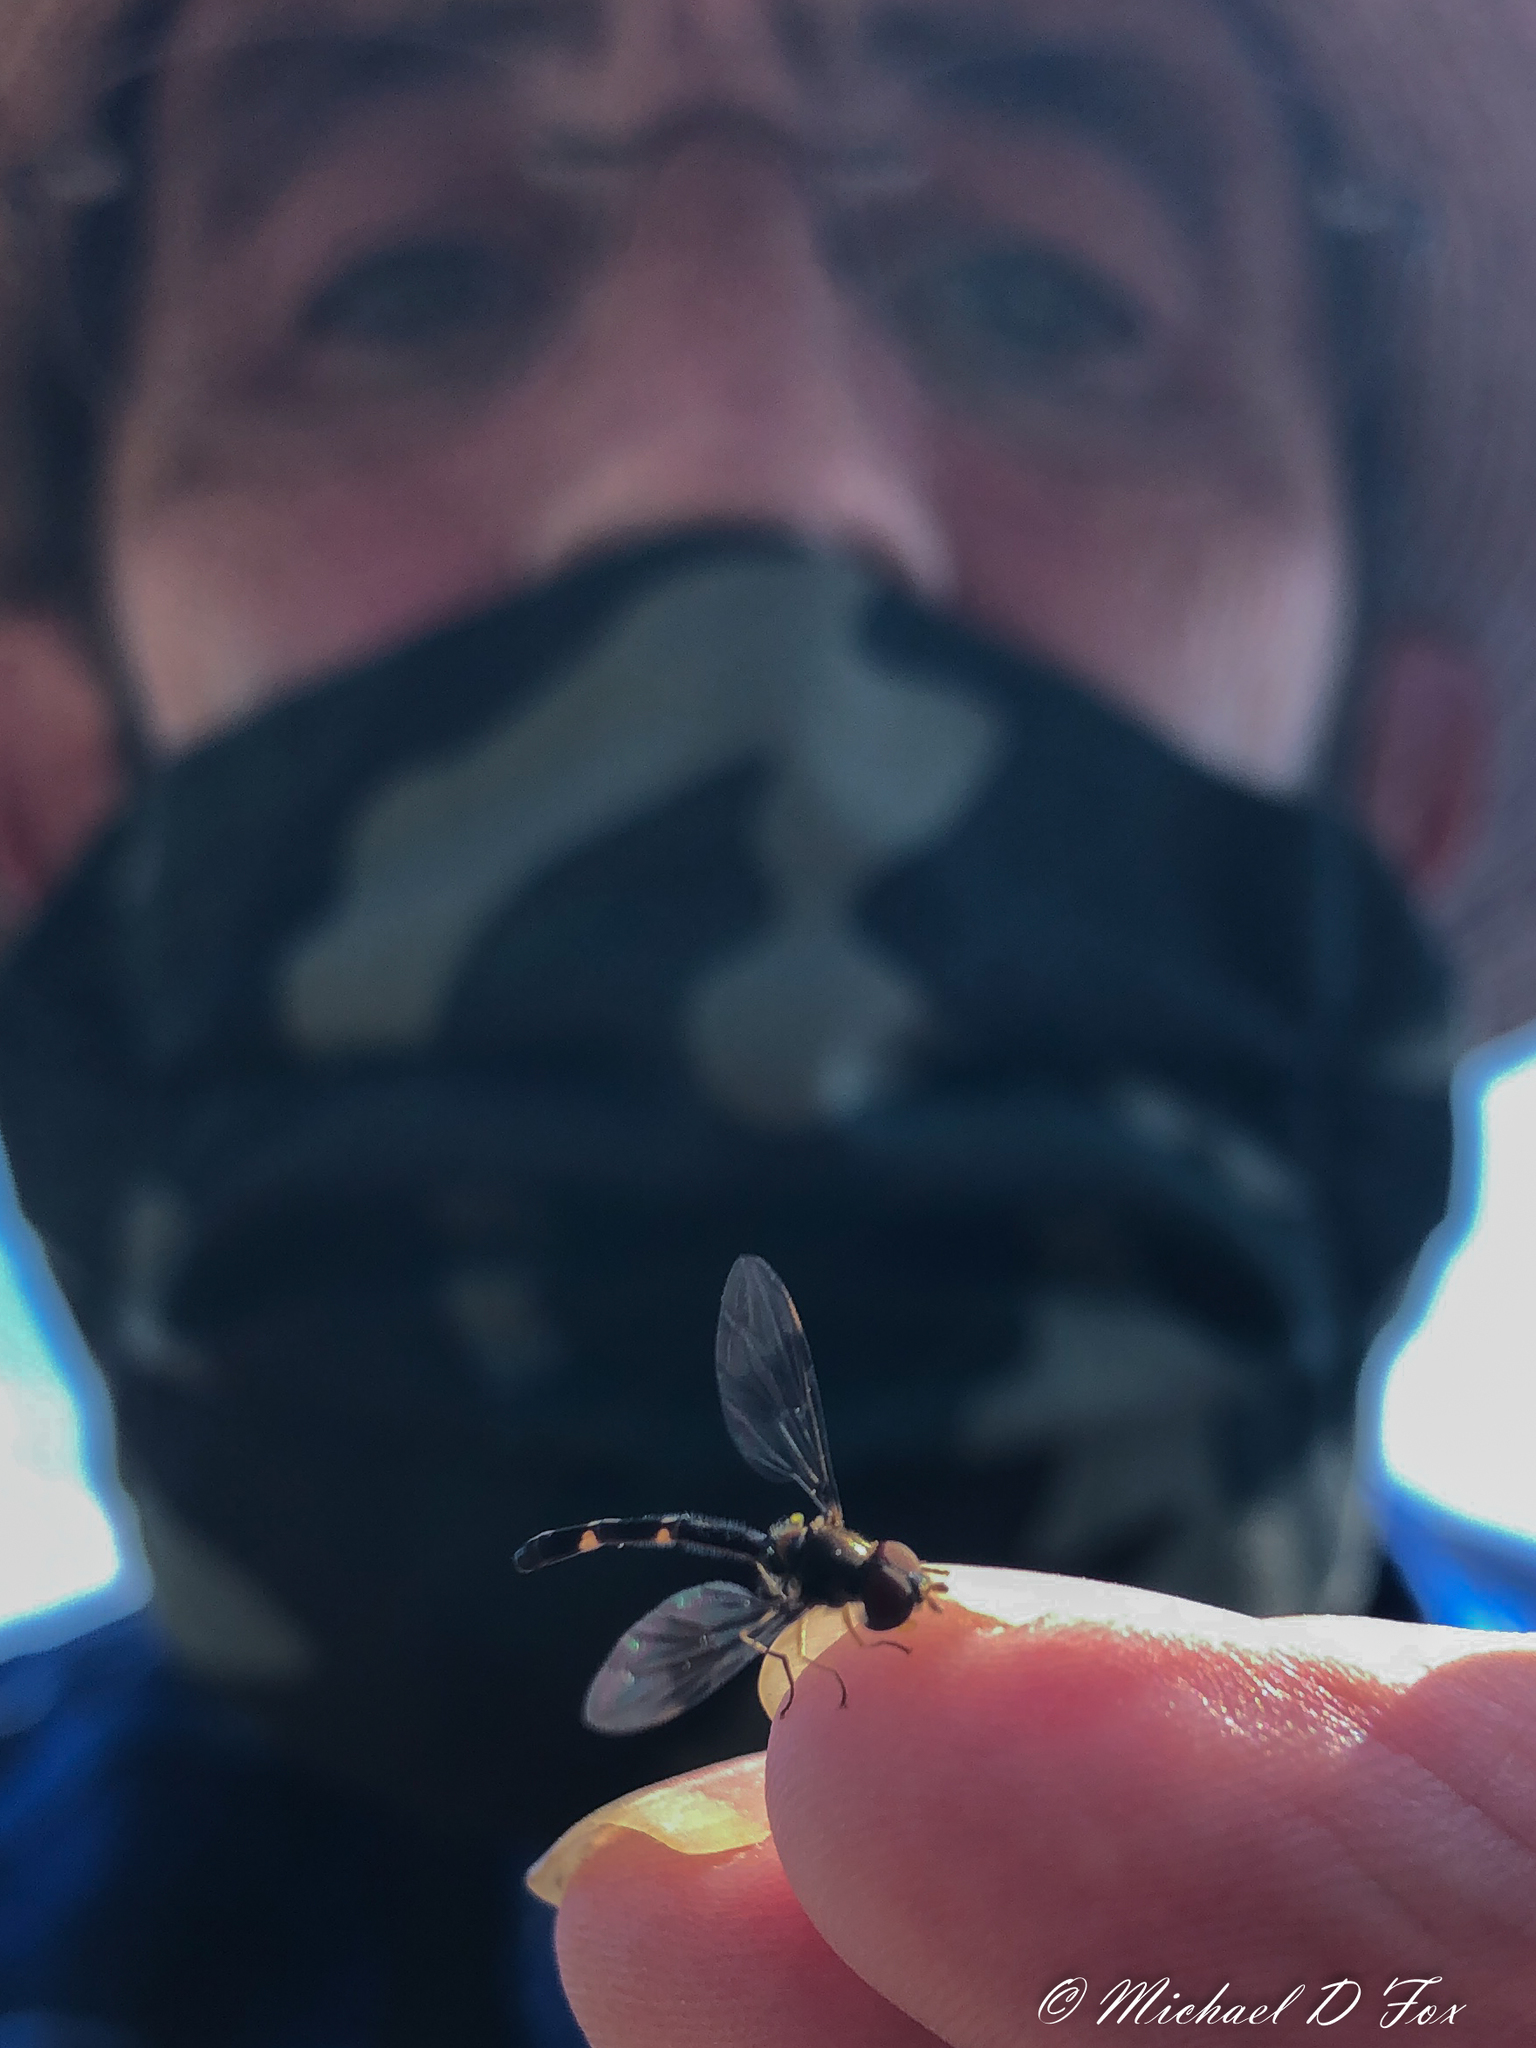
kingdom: Animalia
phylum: Arthropoda
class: Insecta
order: Diptera
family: Syrphidae
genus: Hypocritanus
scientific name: Hypocritanus fascipennis
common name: Eastern band-winged hover fly
